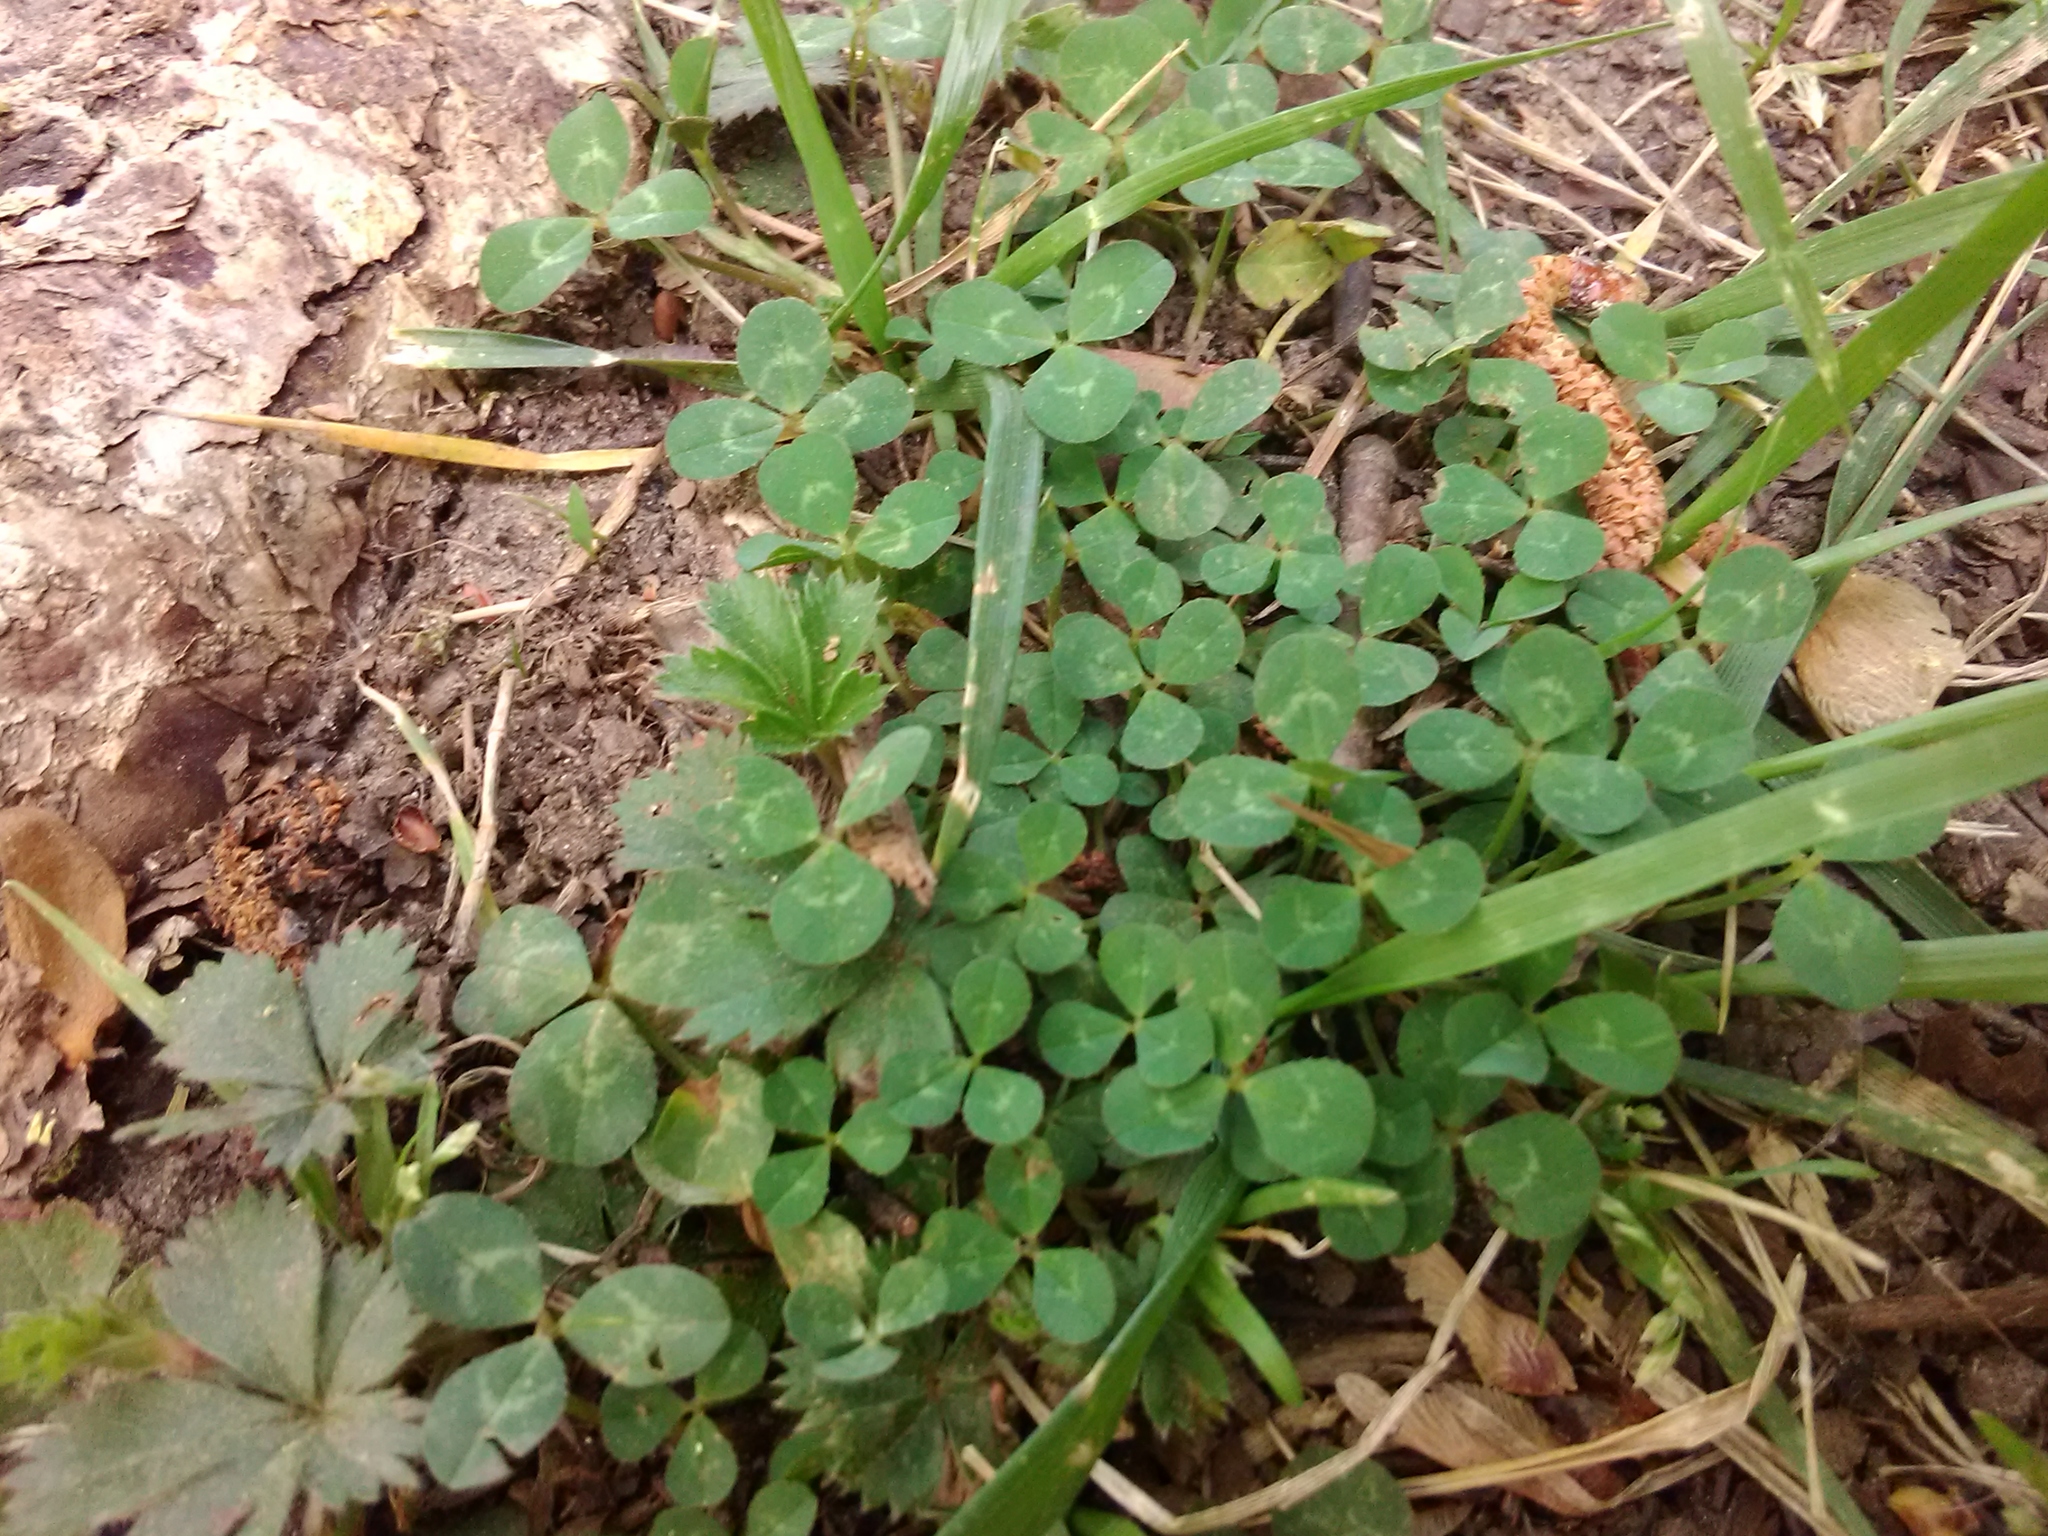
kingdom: Plantae
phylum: Tracheophyta
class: Magnoliopsida
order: Fabales
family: Fabaceae
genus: Trifolium
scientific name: Trifolium repens
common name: White clover
